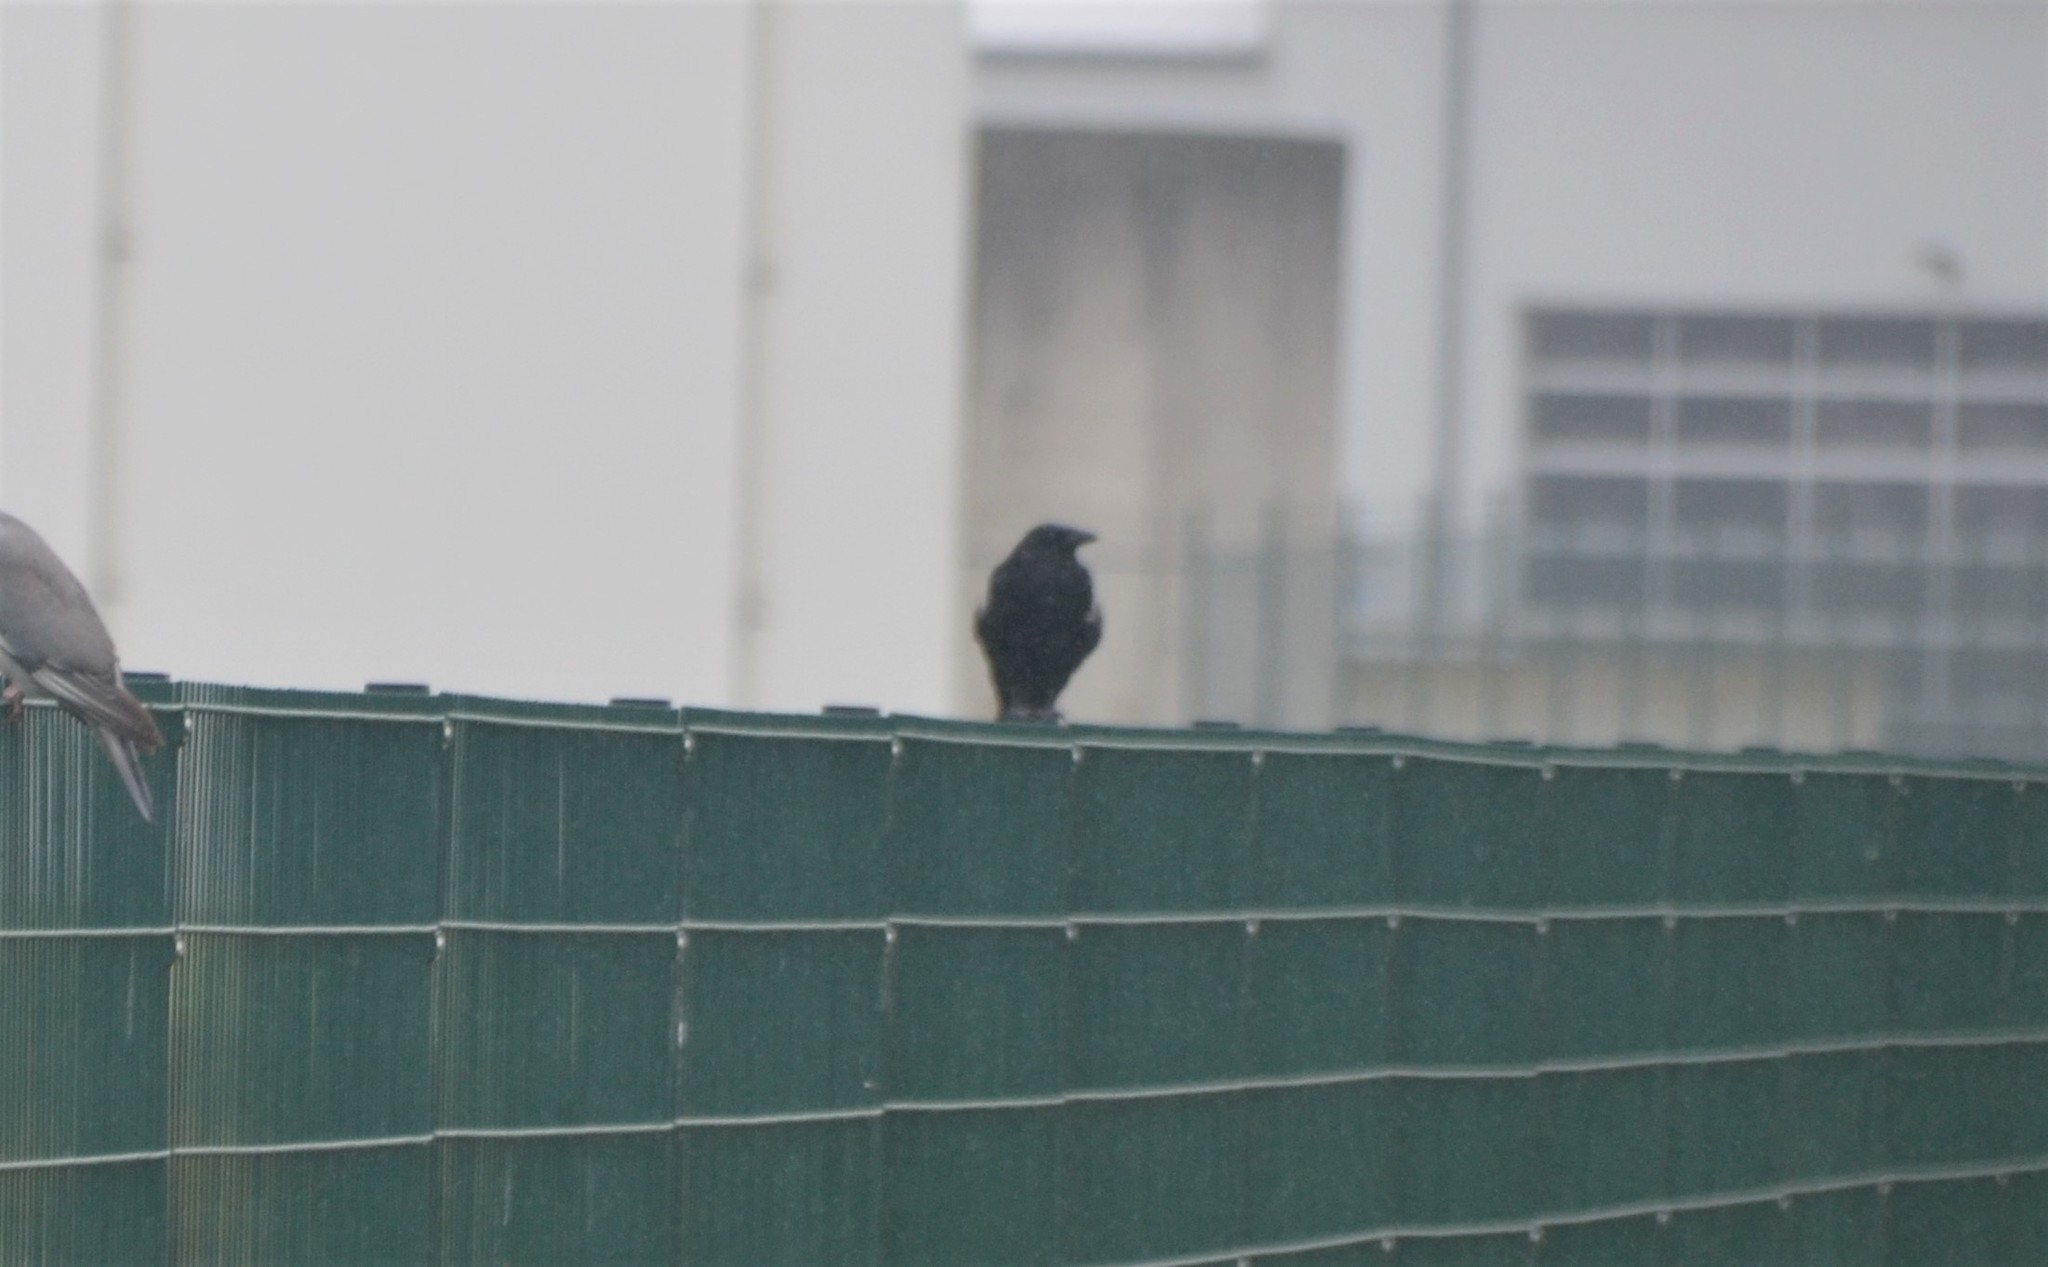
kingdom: Animalia
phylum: Chordata
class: Aves
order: Passeriformes
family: Corvidae
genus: Corvus
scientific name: Corvus
